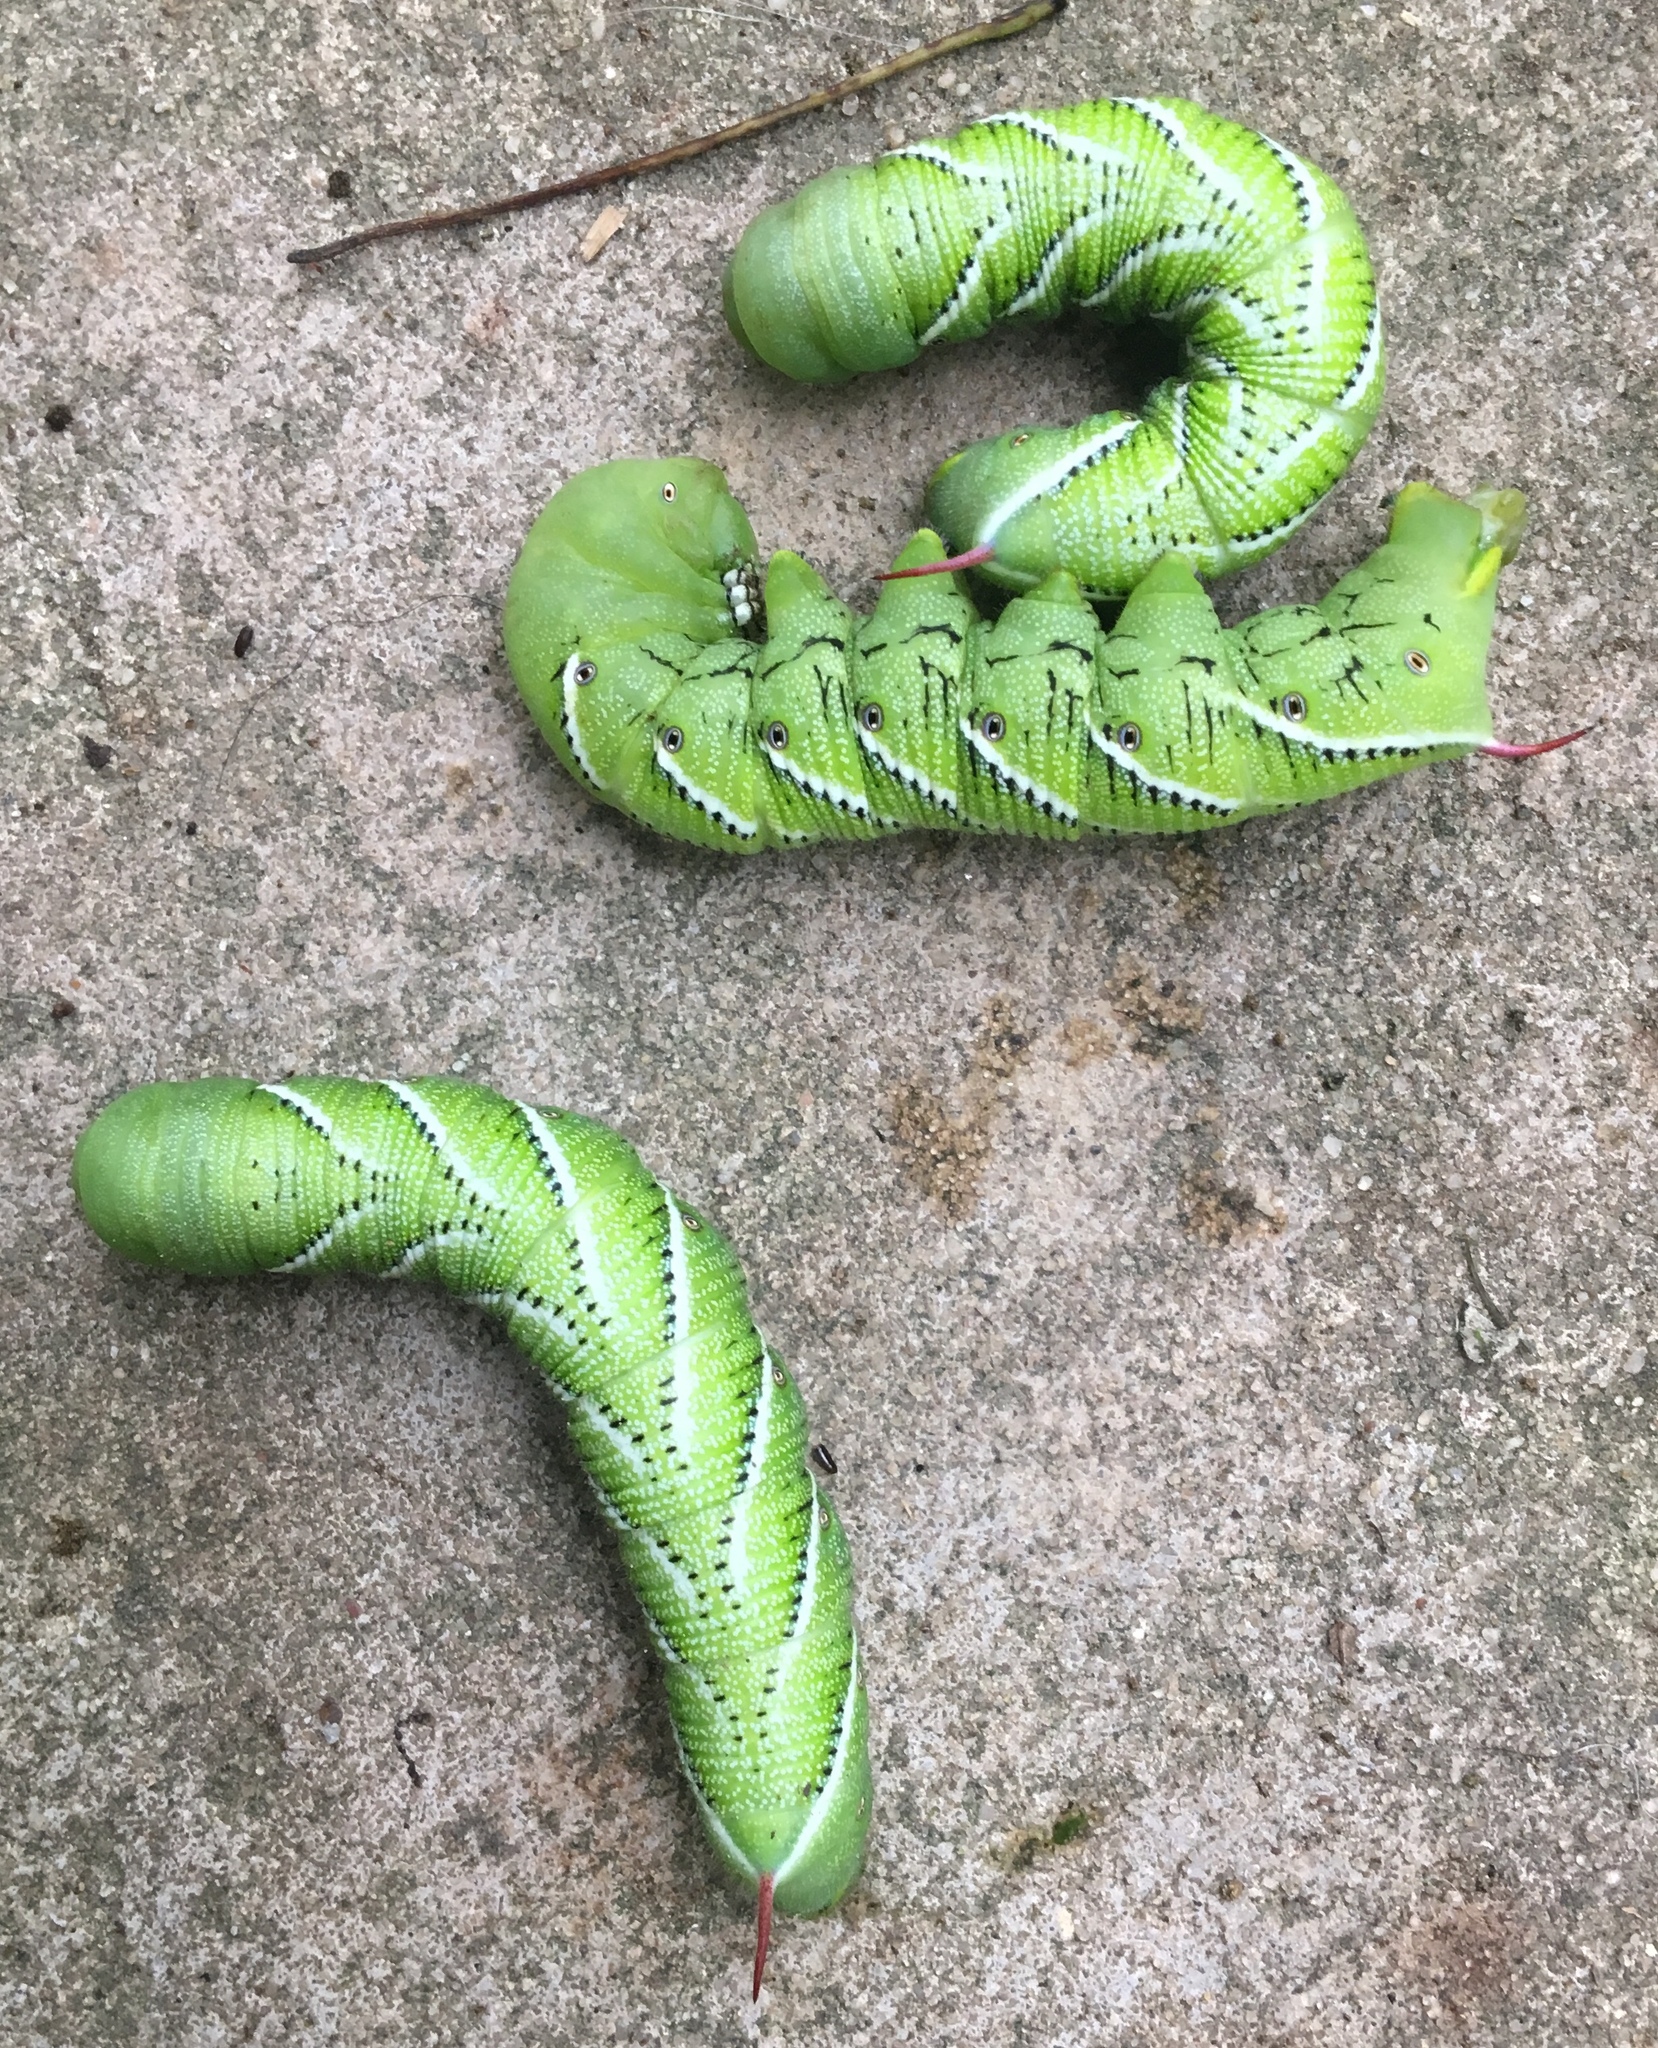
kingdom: Animalia
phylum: Arthropoda
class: Insecta
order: Lepidoptera
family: Sphingidae
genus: Manduca
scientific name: Manduca sexta
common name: Carolina sphinx
